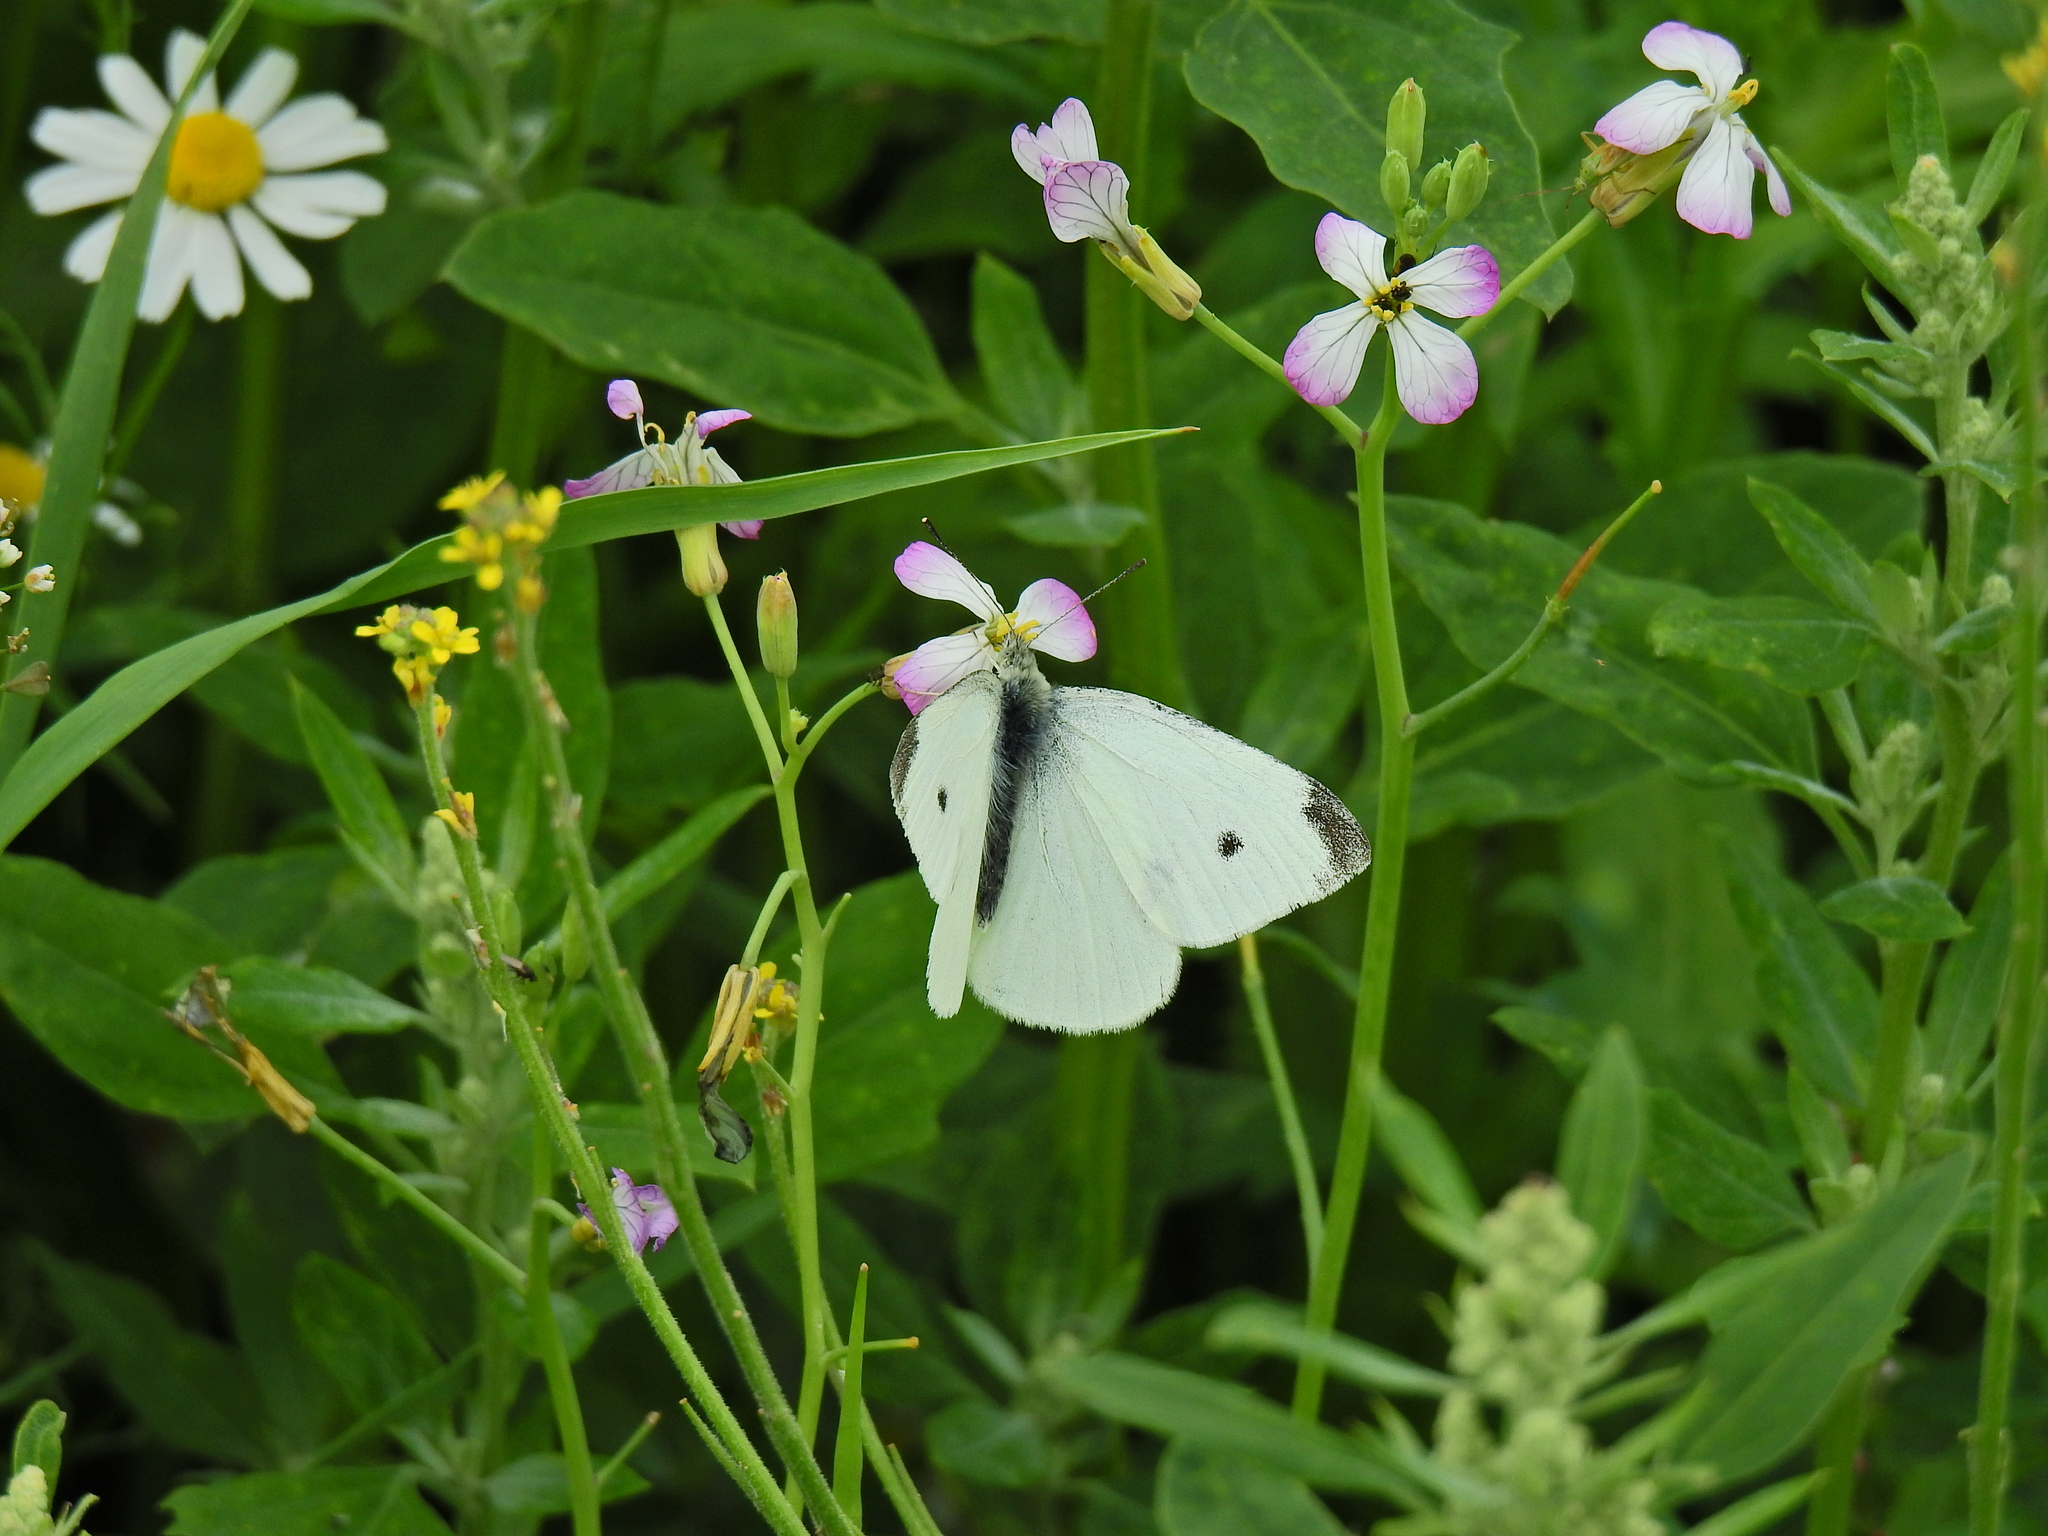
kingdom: Animalia
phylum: Arthropoda
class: Insecta
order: Lepidoptera
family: Pieridae
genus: Pieris
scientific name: Pieris rapae
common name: Small white
